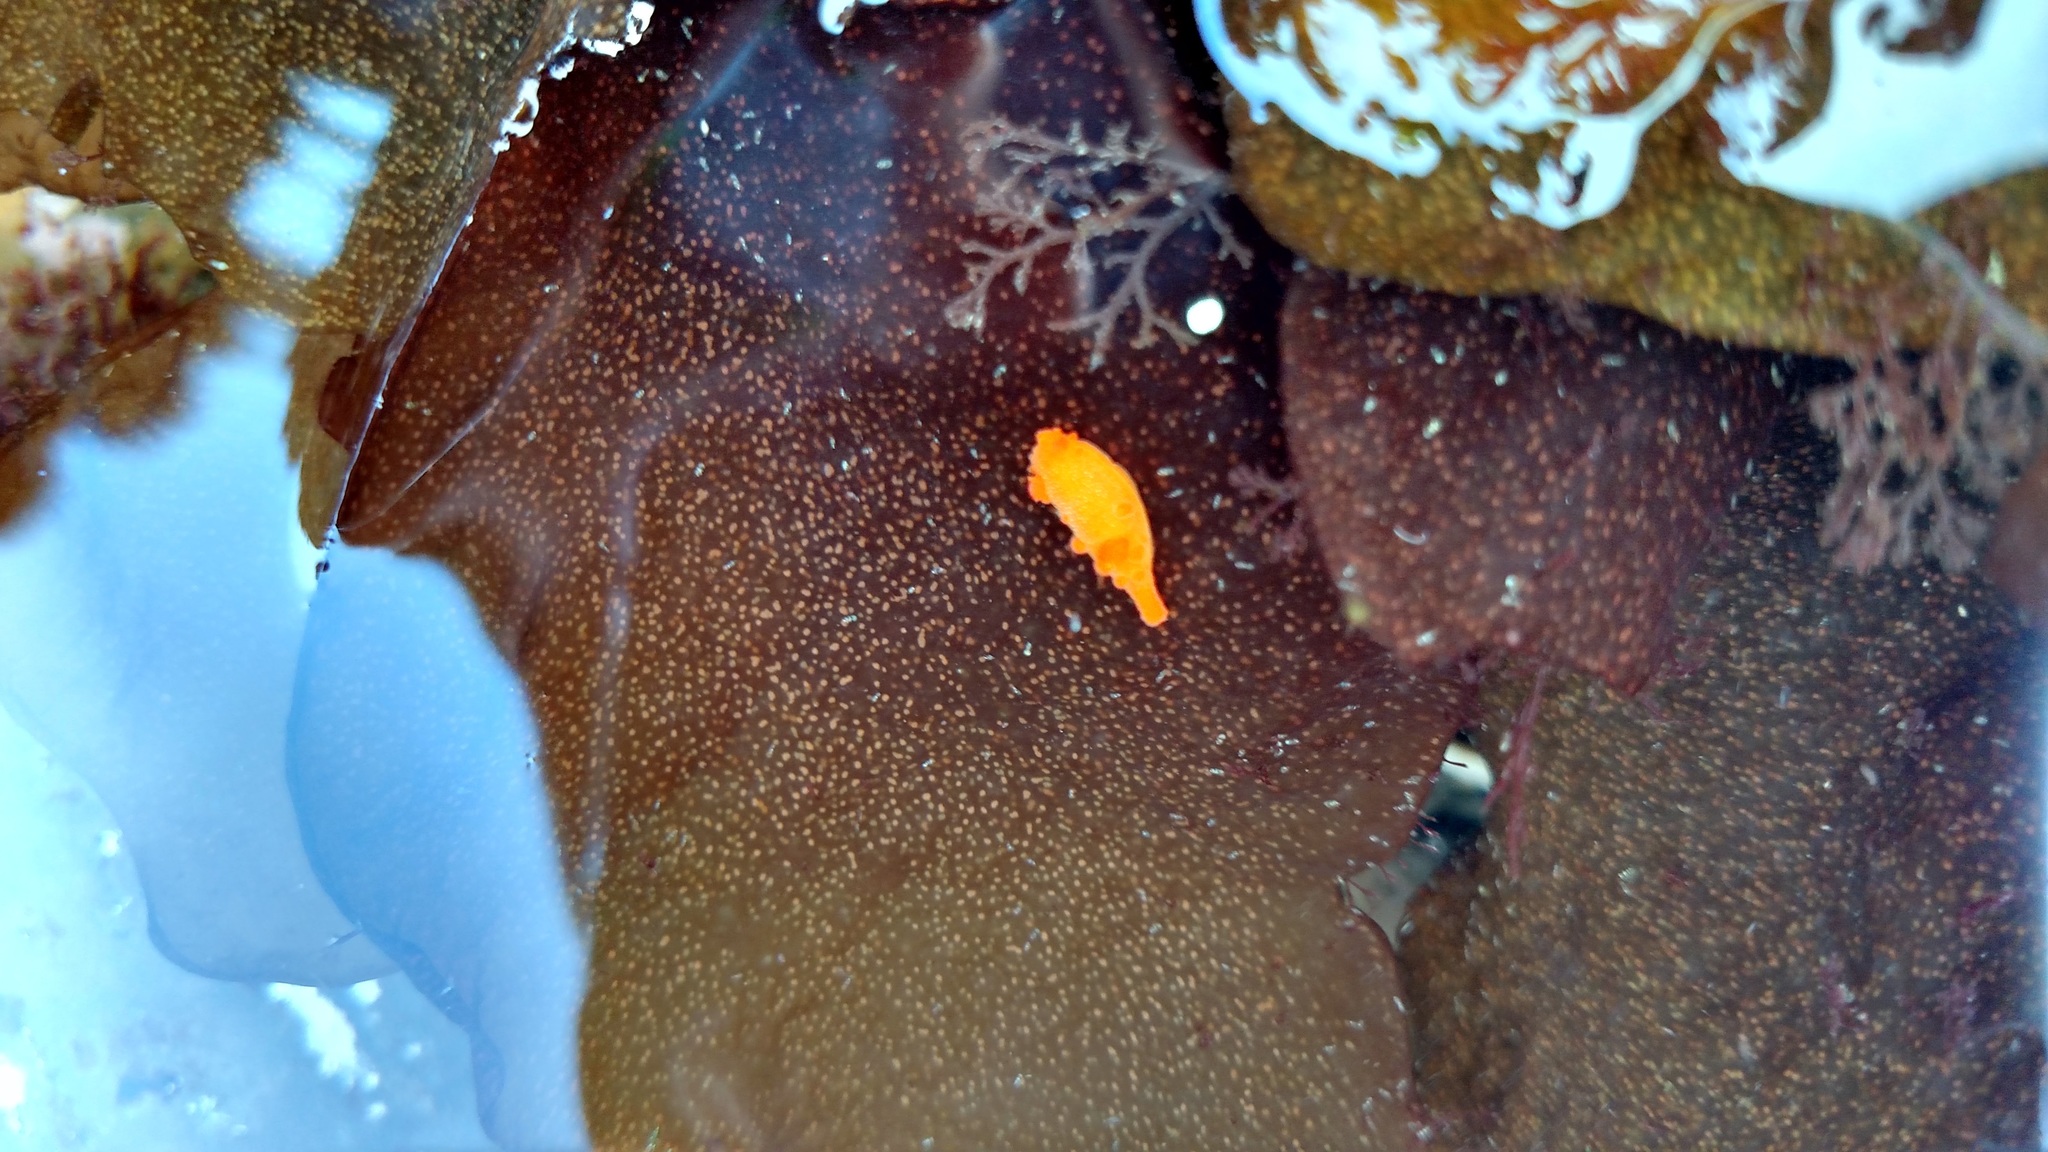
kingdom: Animalia
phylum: Mollusca
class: Gastropoda
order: Nudibranchia
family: Polyceridae
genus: Triopha
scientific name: Triopha maculata
